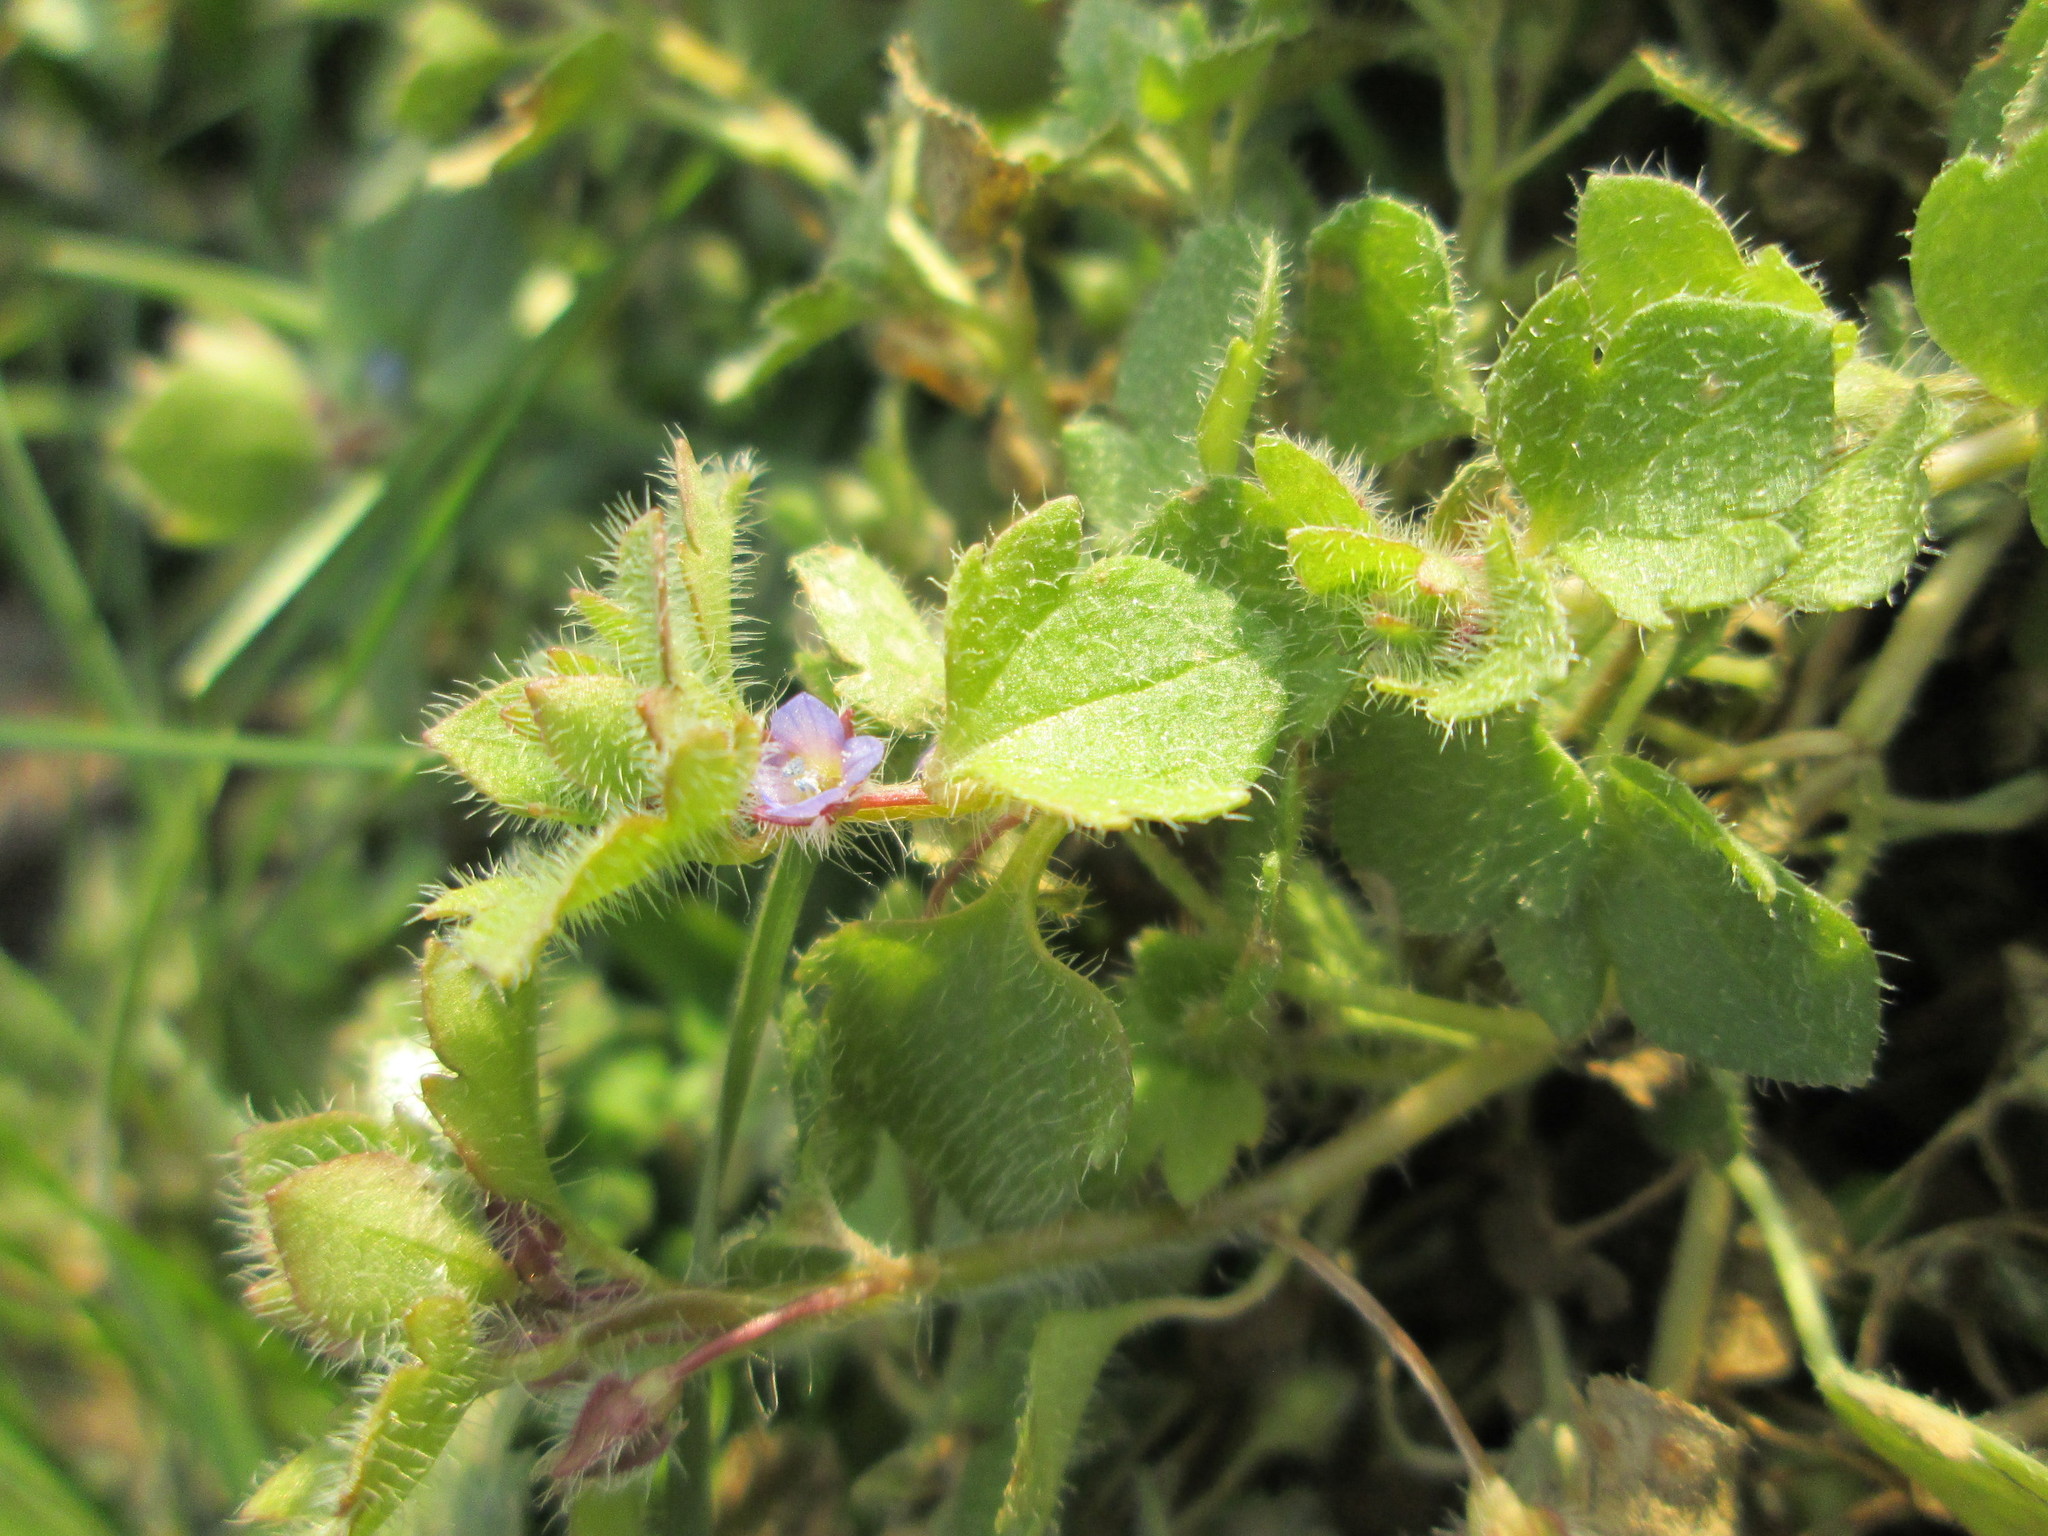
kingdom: Plantae
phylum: Tracheophyta
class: Magnoliopsida
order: Lamiales
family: Plantaginaceae
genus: Veronica
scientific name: Veronica hederifolia
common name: Ivy-leaved speedwell
